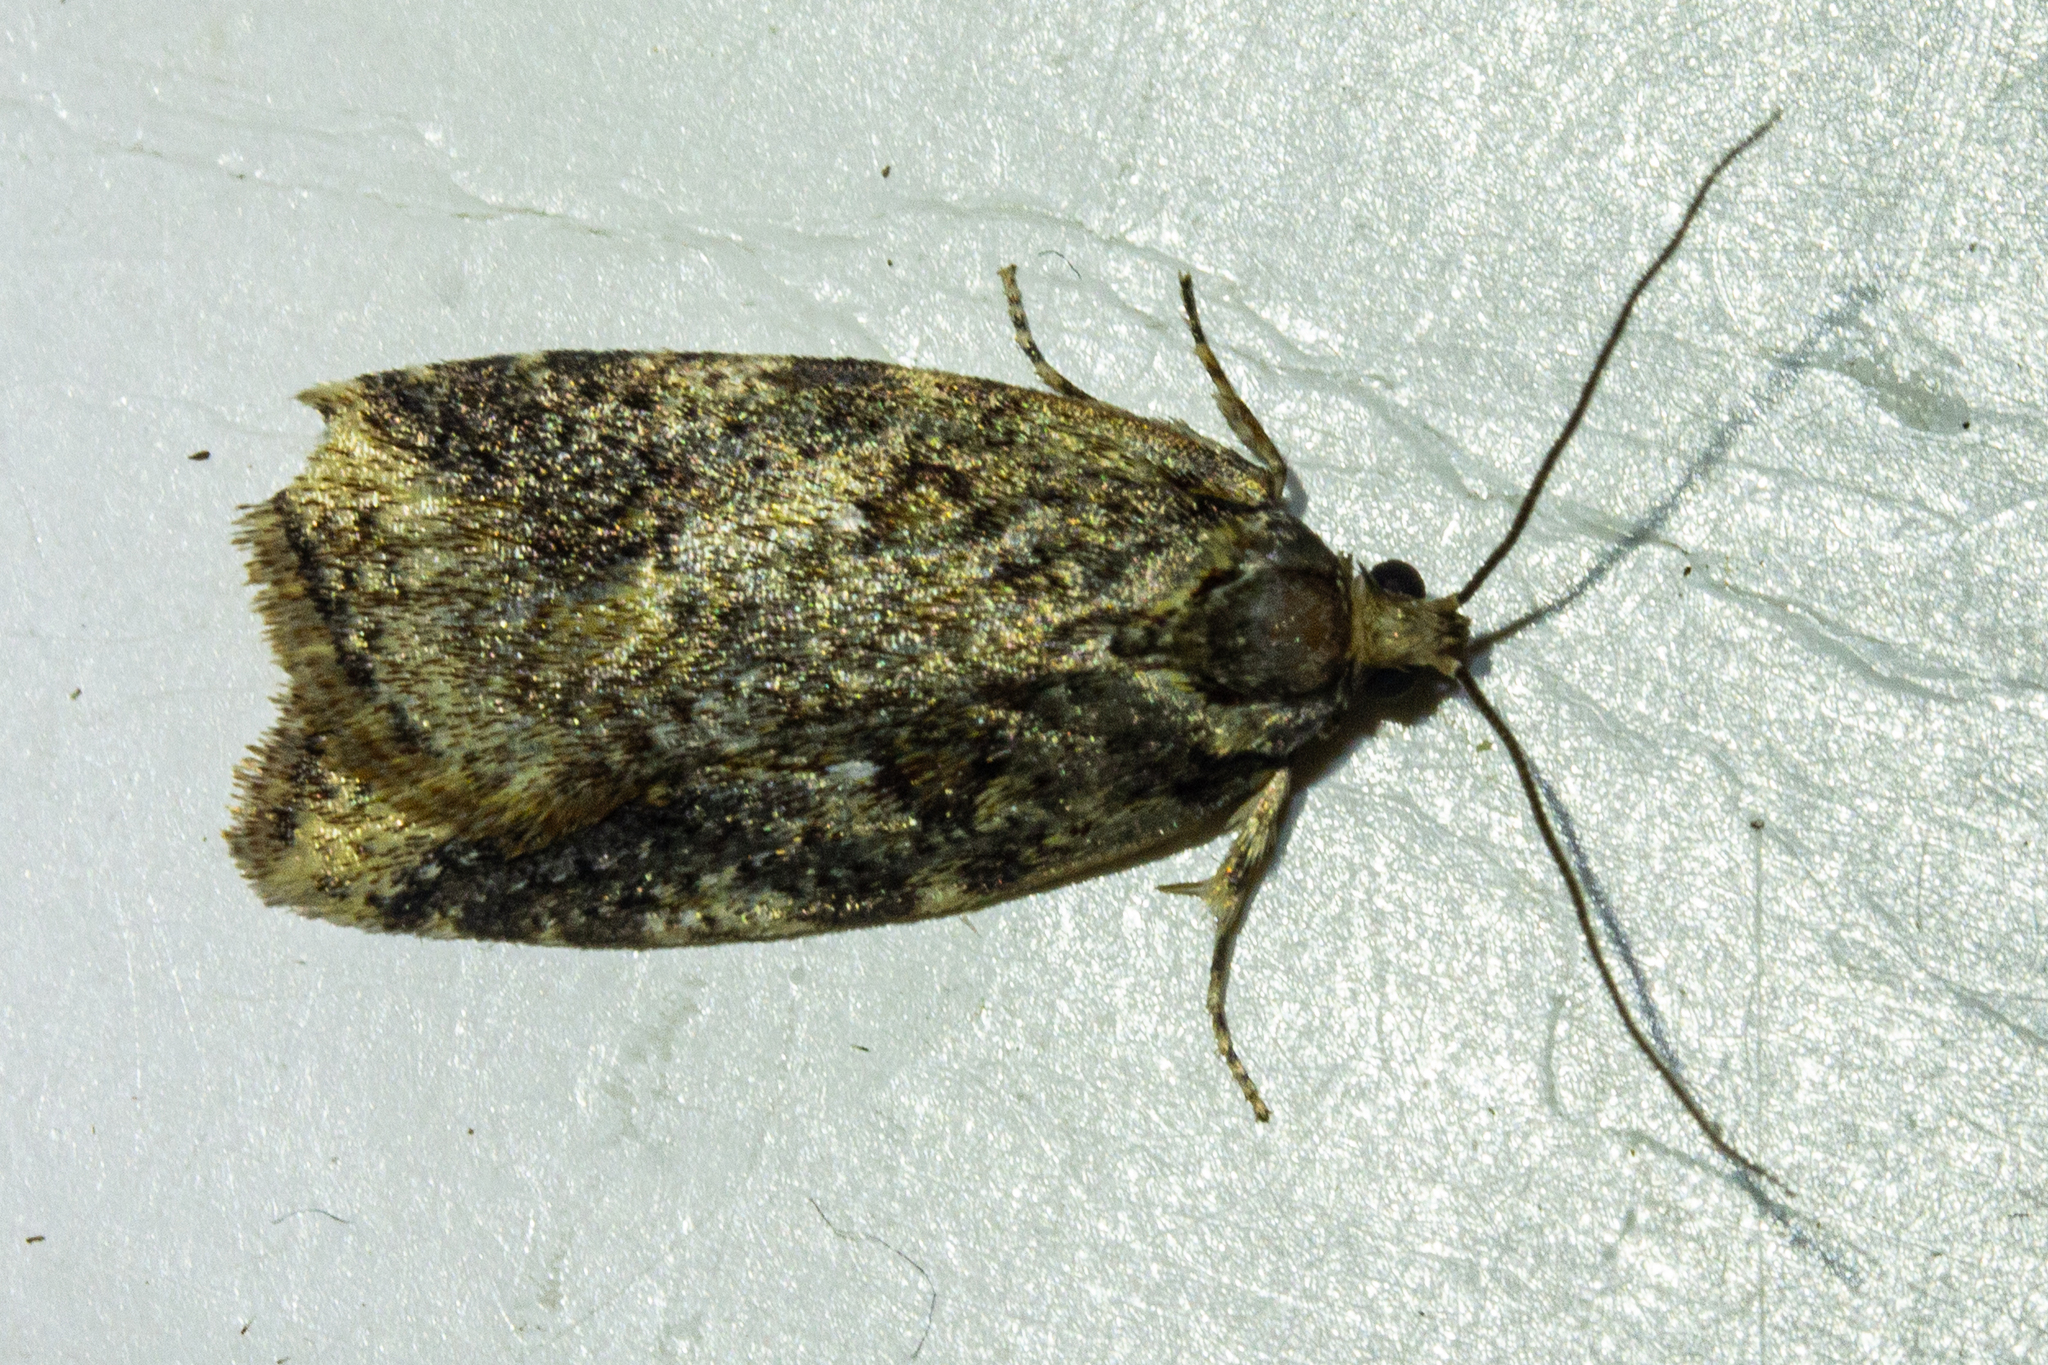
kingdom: Animalia
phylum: Arthropoda
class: Insecta
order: Lepidoptera
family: Oecophoridae
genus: Proteodes
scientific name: Proteodes profunda
